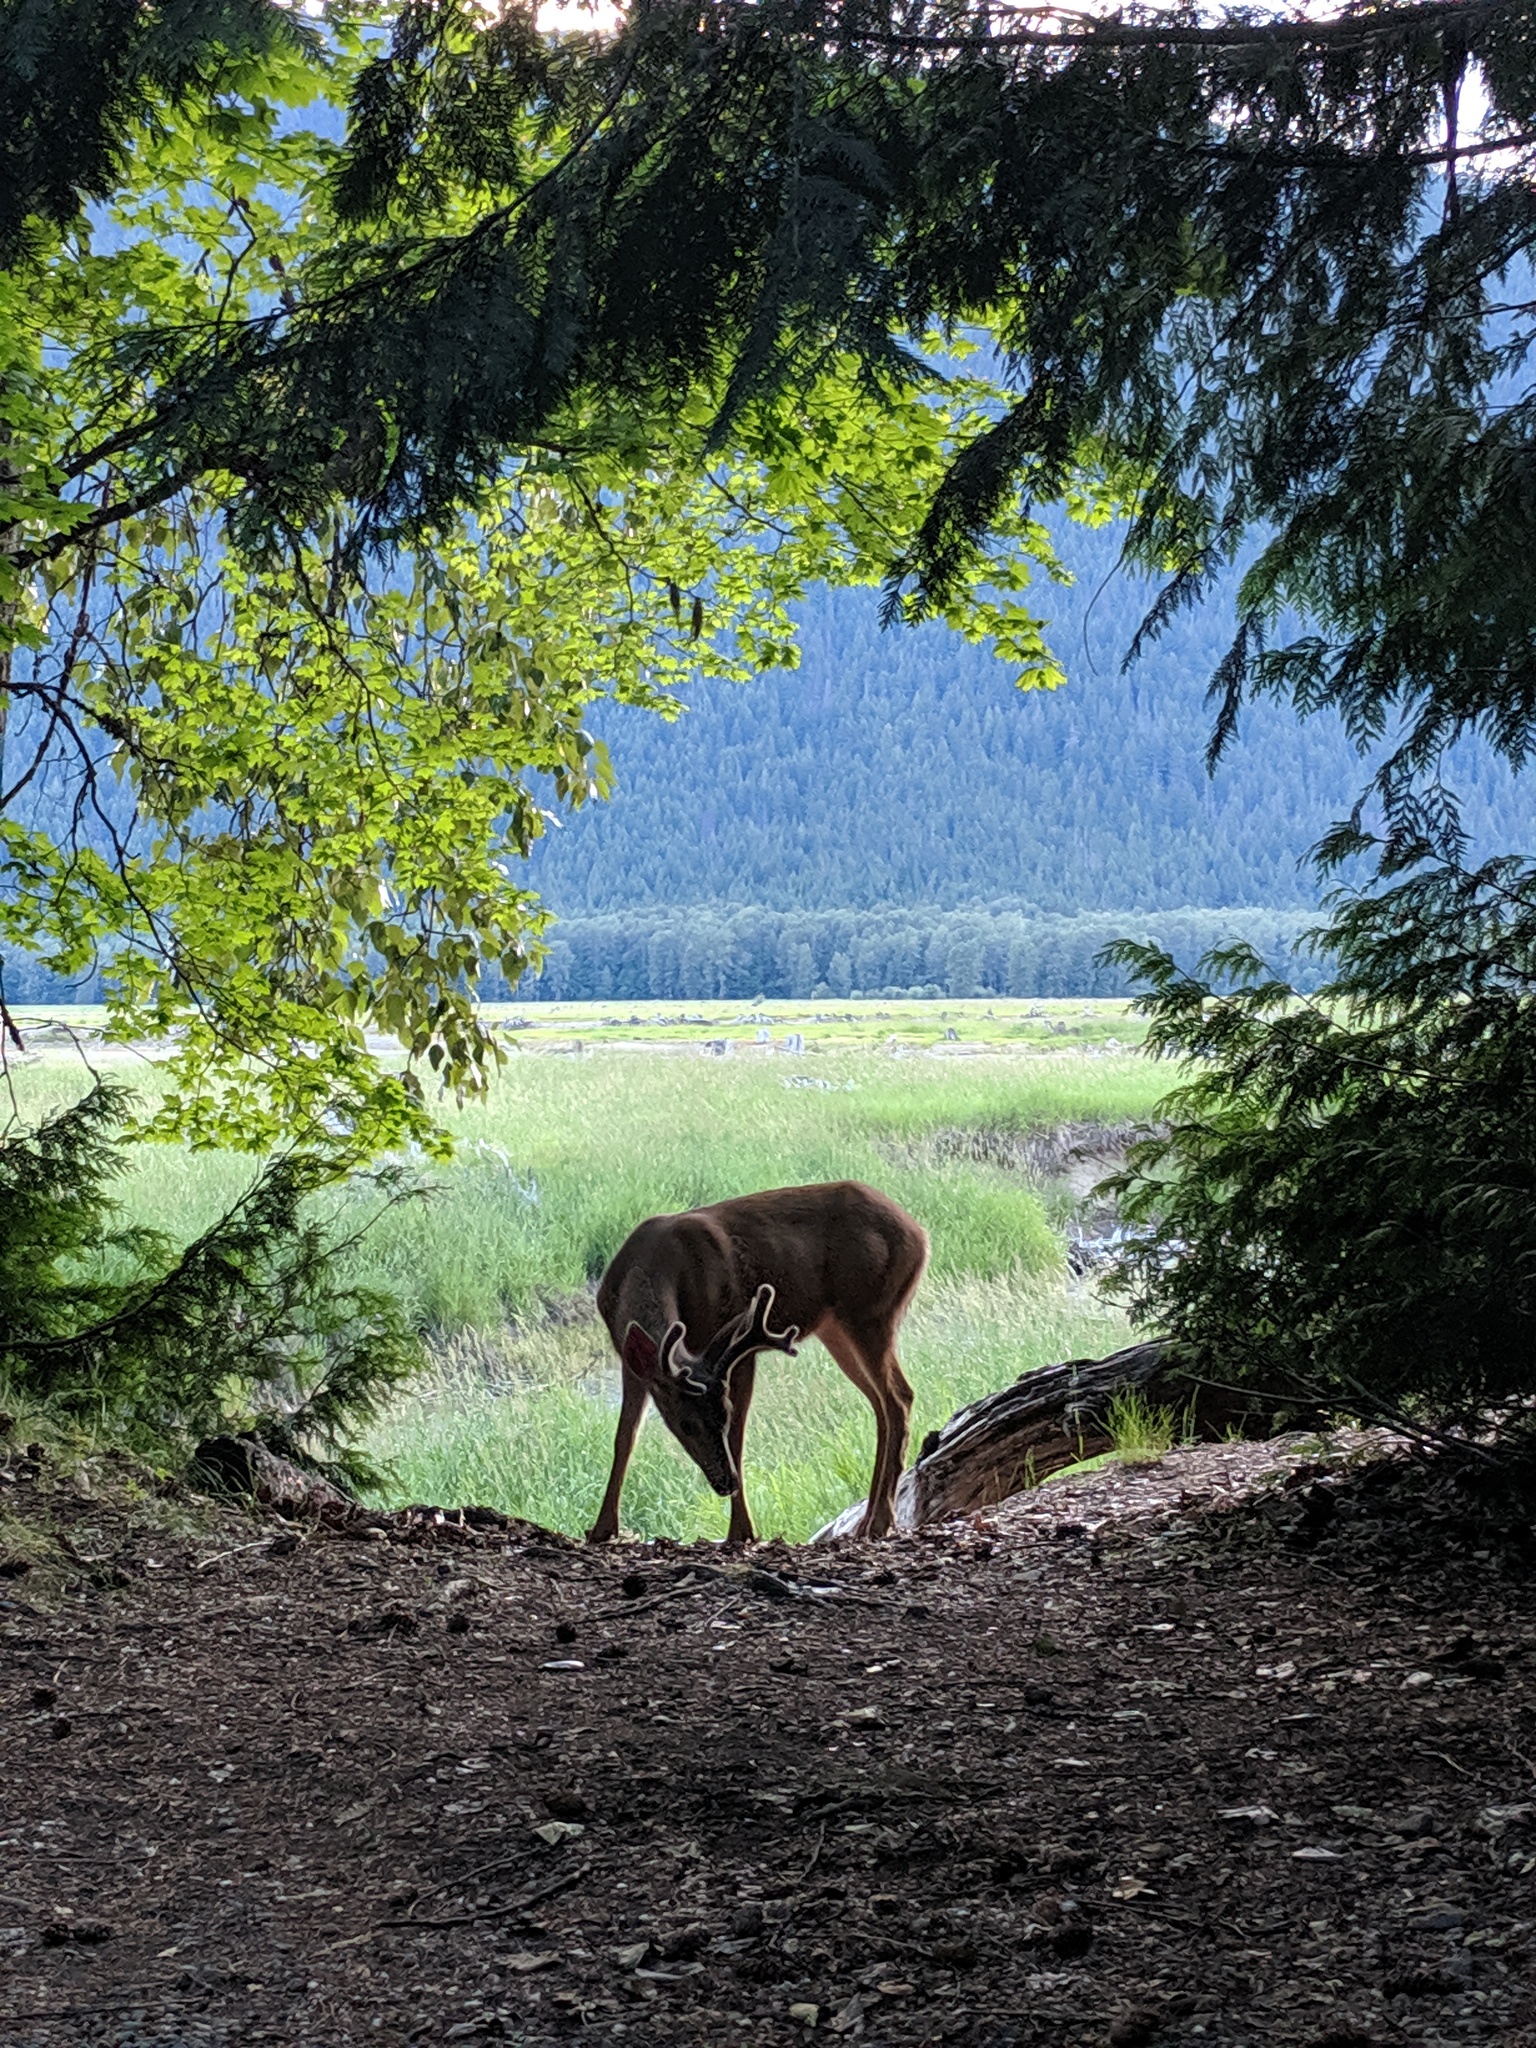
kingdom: Animalia
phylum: Chordata
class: Mammalia
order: Artiodactyla
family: Cervidae
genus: Odocoileus
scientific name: Odocoileus hemionus
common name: Mule deer
